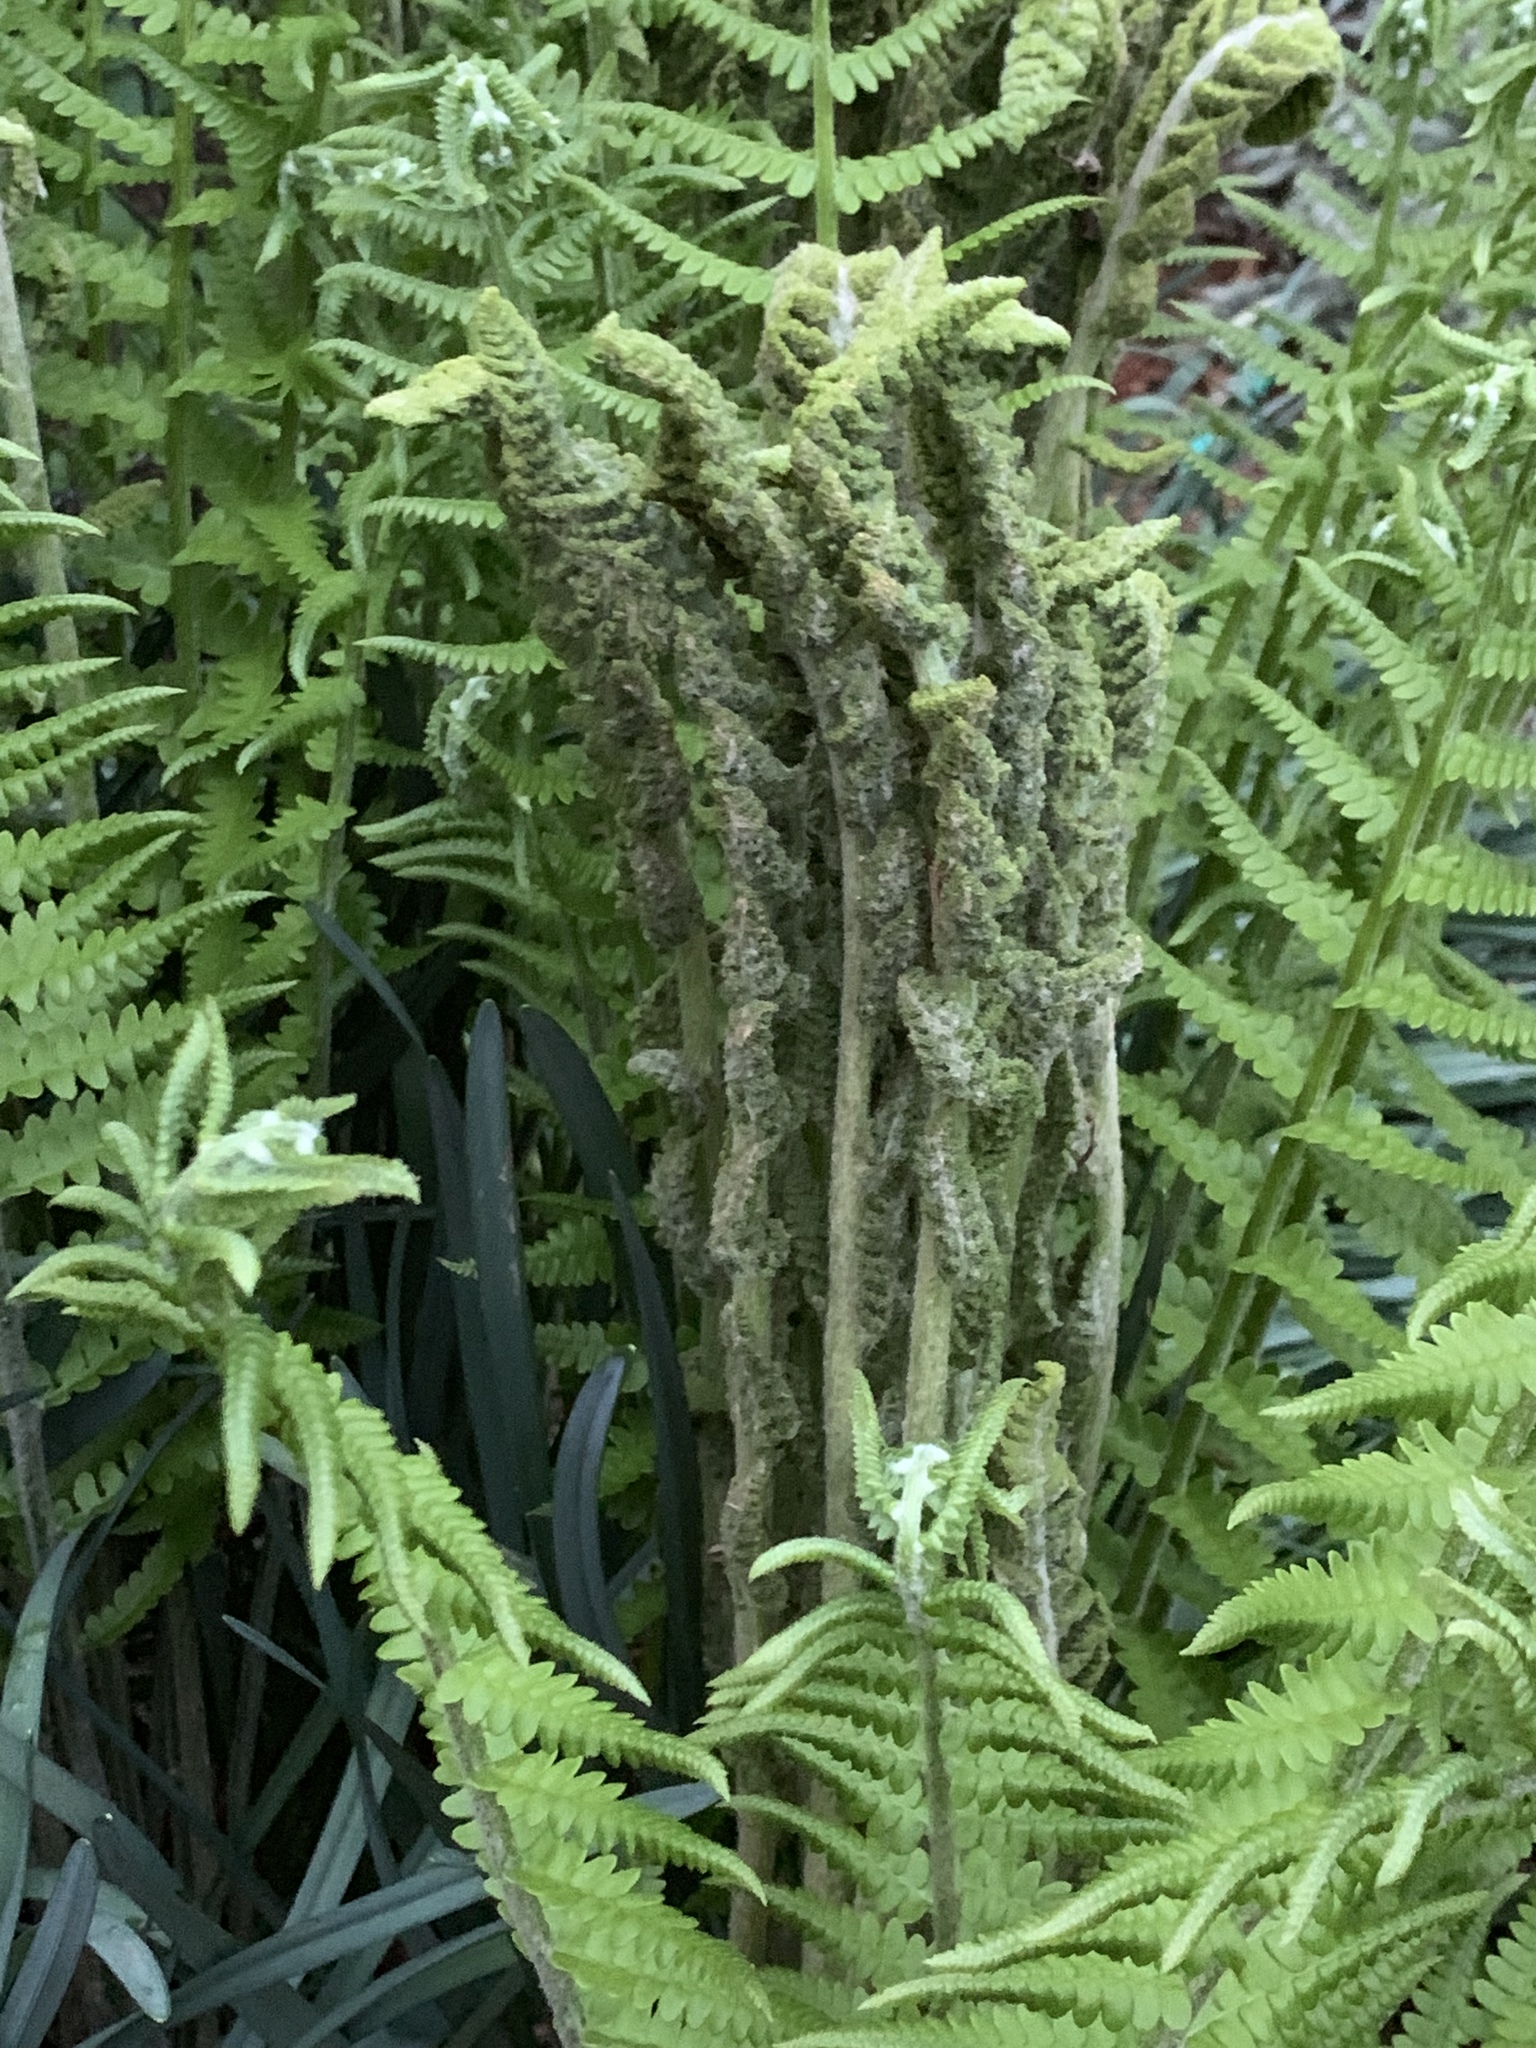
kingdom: Plantae
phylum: Tracheophyta
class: Polypodiopsida
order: Osmundales
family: Osmundaceae
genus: Osmundastrum
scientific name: Osmundastrum cinnamomeum
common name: Cinnamon fern
